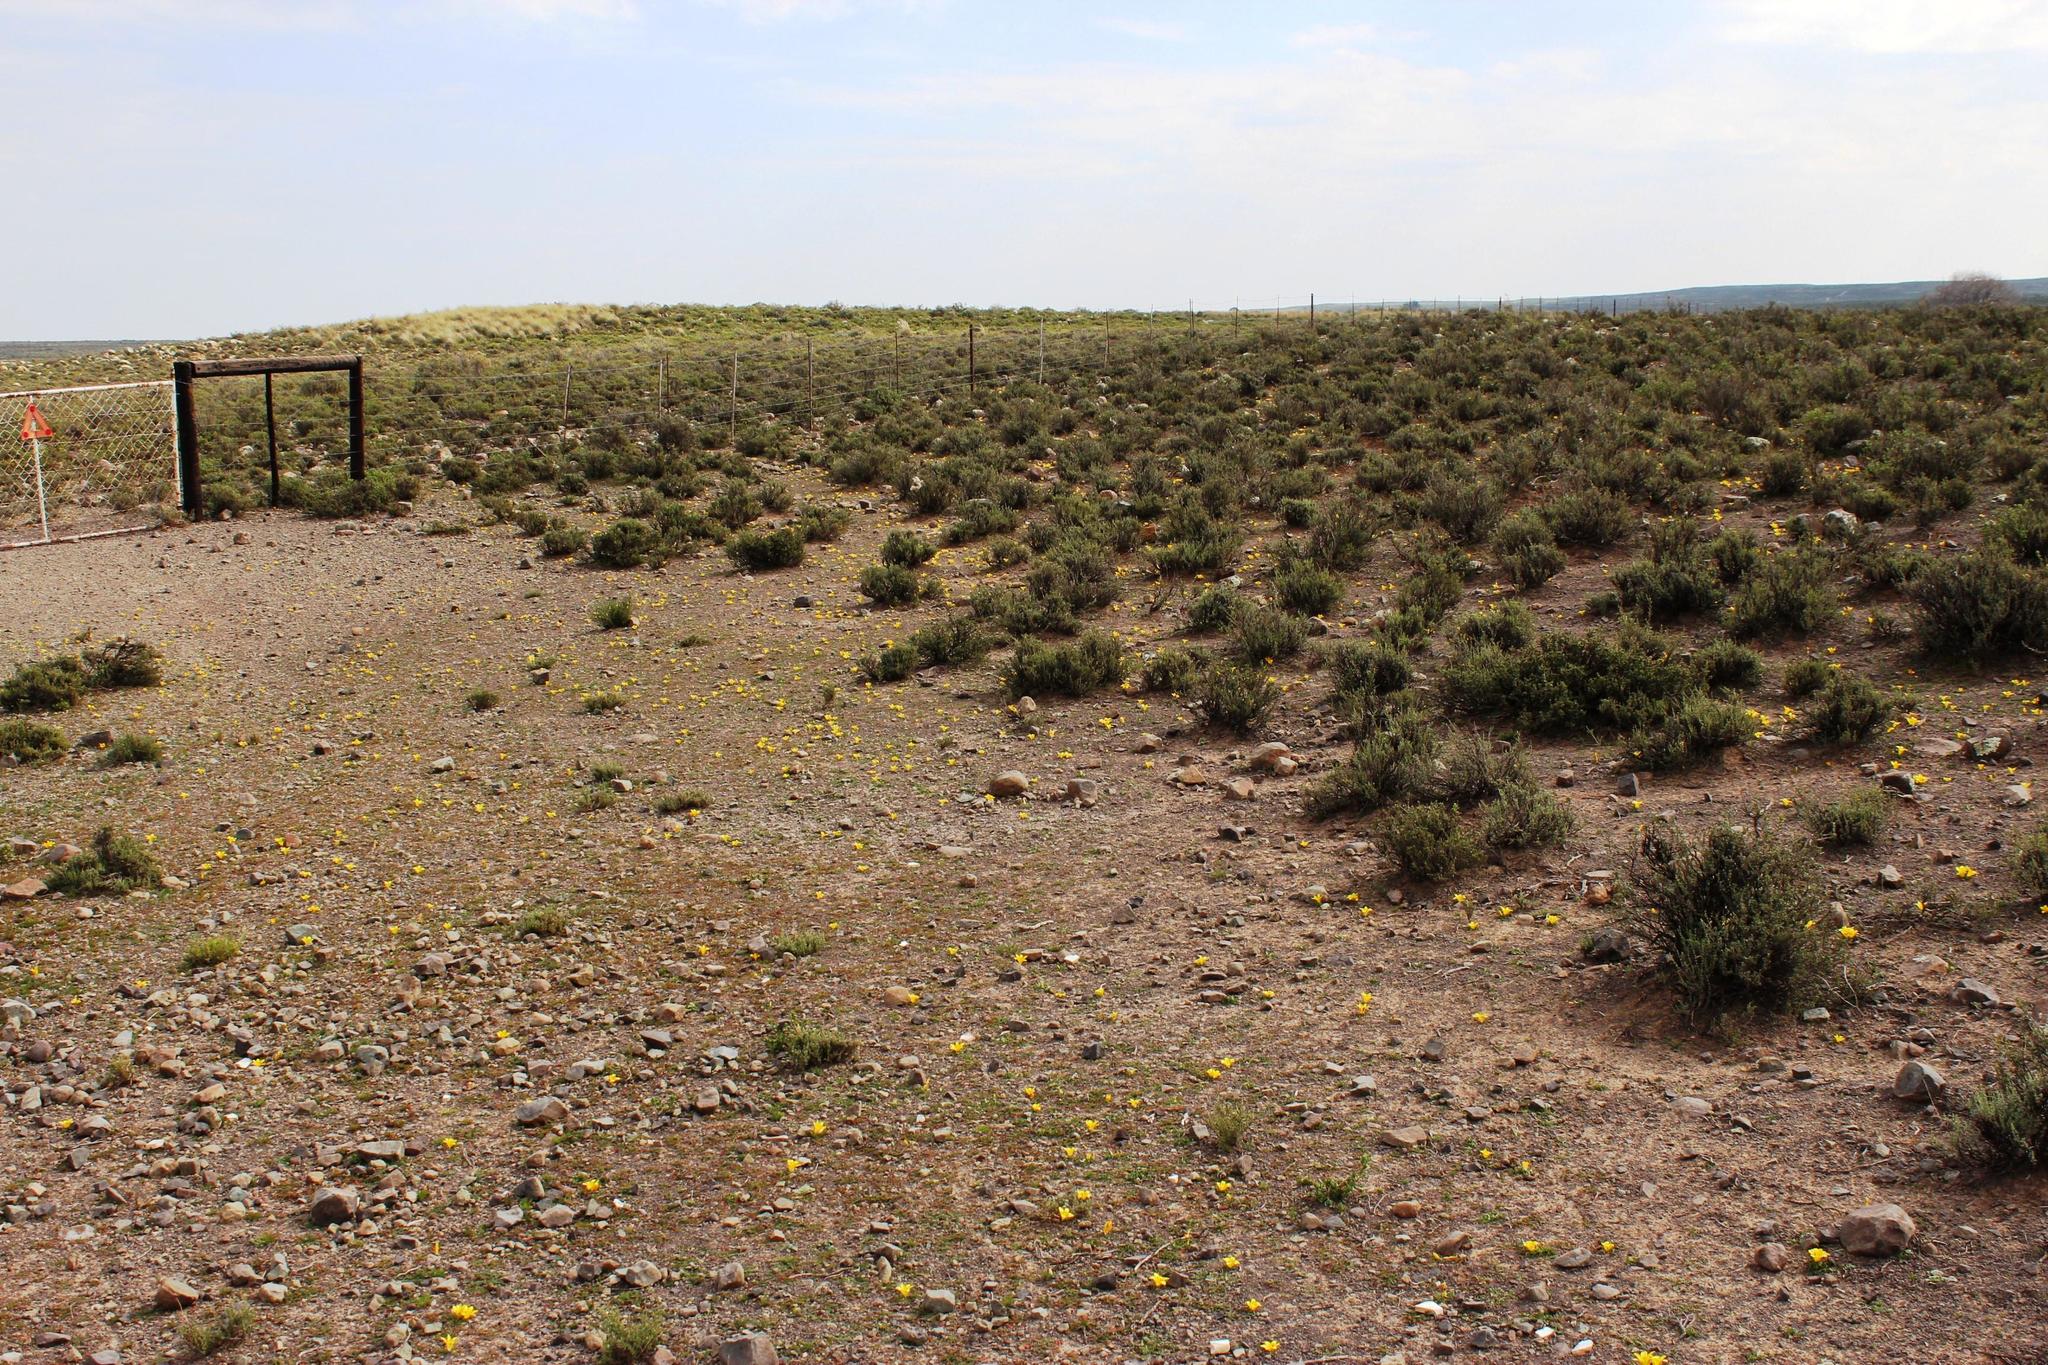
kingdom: Plantae
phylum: Tracheophyta
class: Liliopsida
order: Asparagales
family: Iridaceae
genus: Romulea
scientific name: Romulea tortuosa
